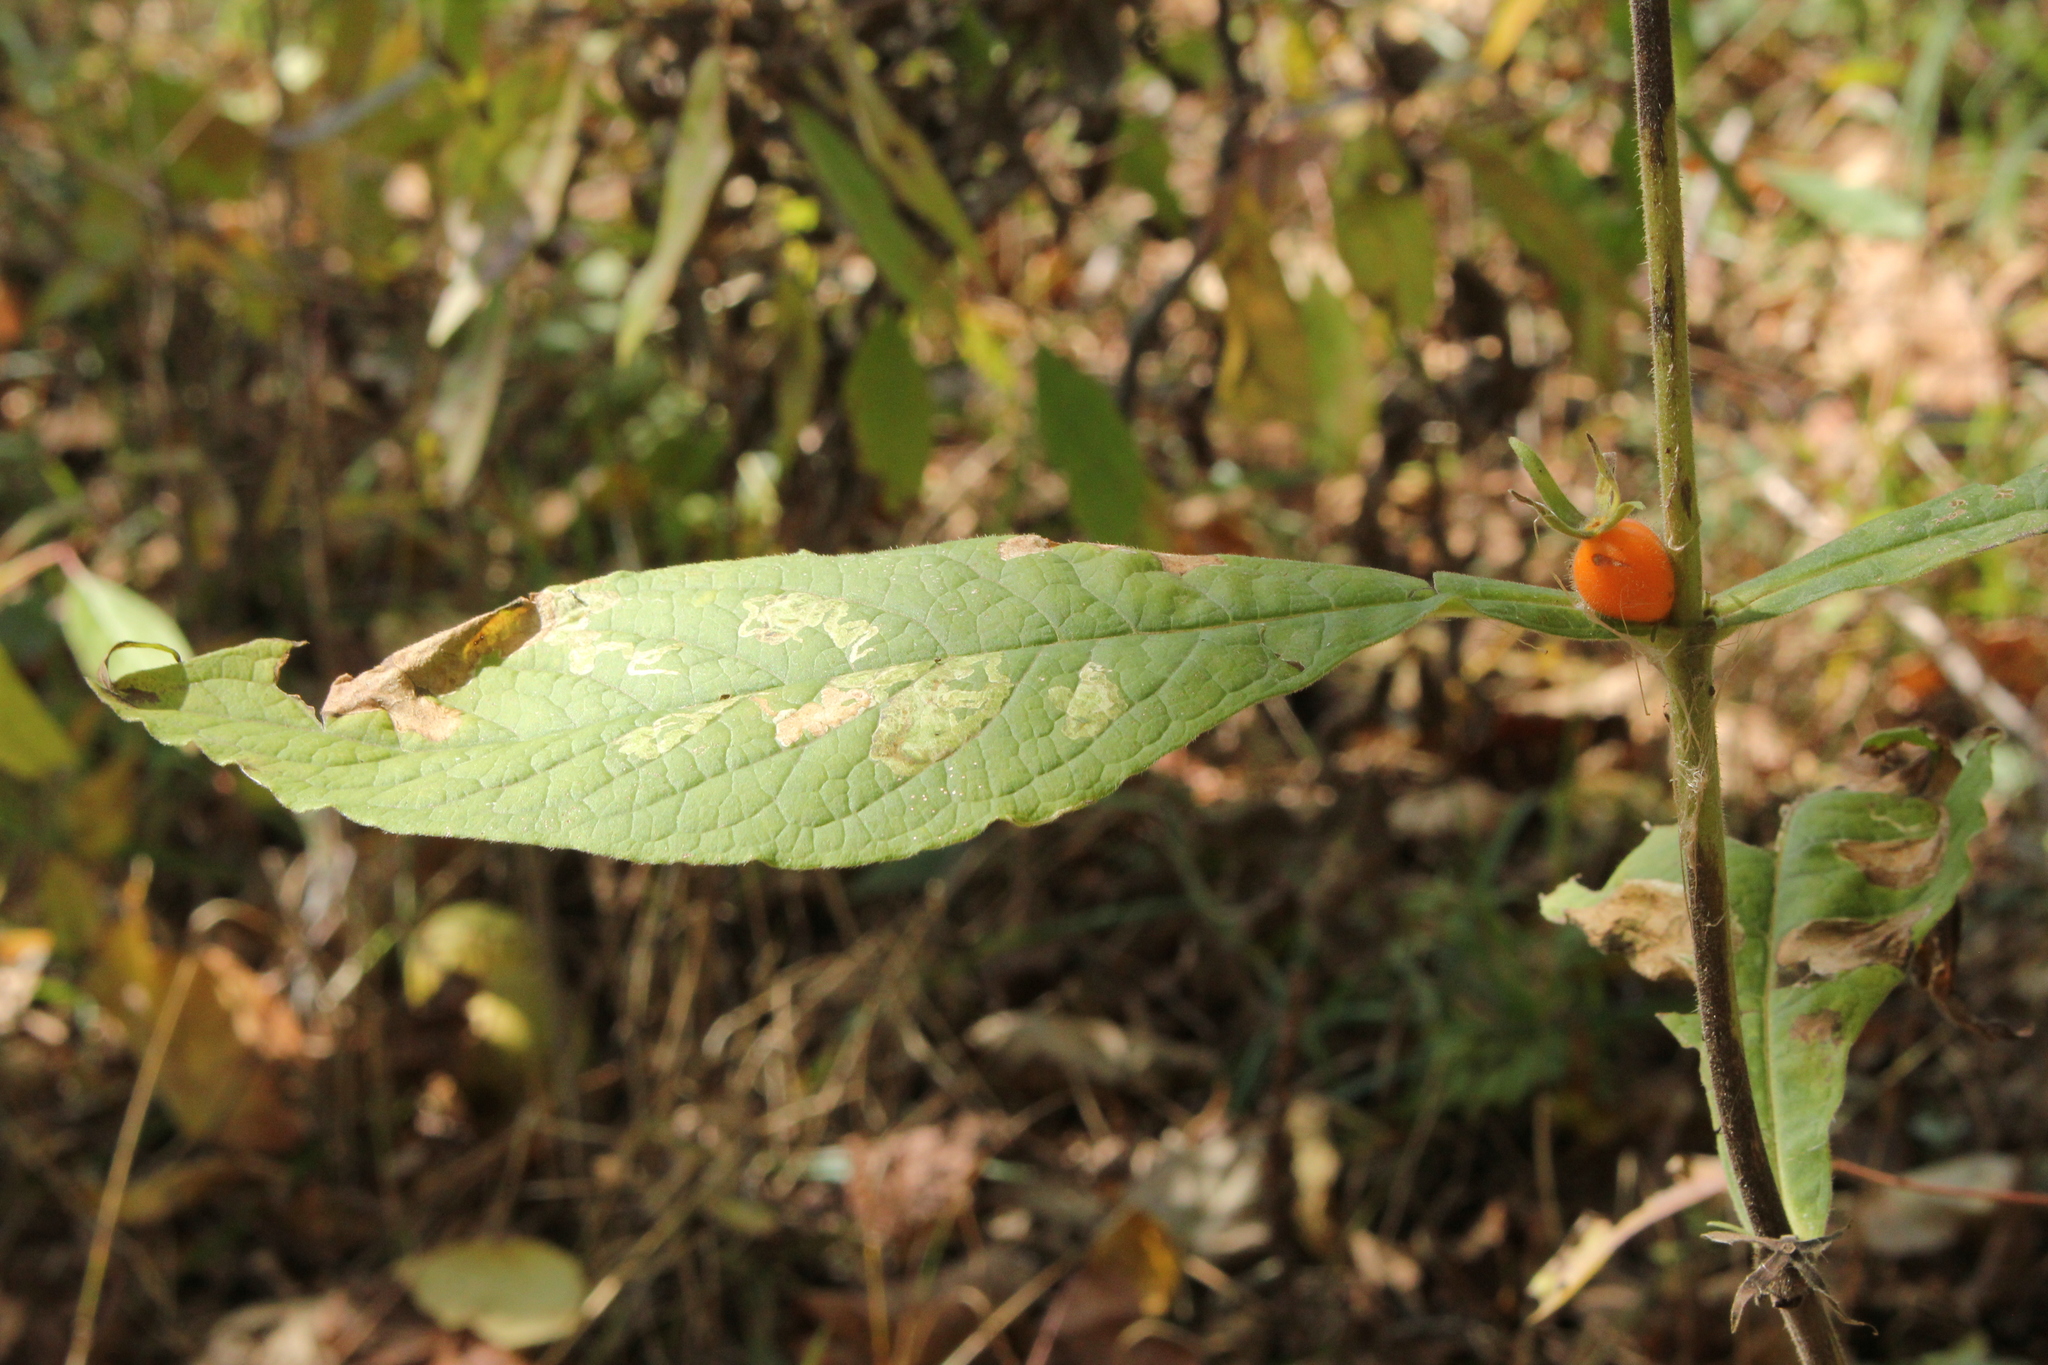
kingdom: Plantae
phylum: Tracheophyta
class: Magnoliopsida
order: Dipsacales
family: Caprifoliaceae
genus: Triosteum
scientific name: Triosteum aurantiacum
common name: Coffee tinker's-weed
